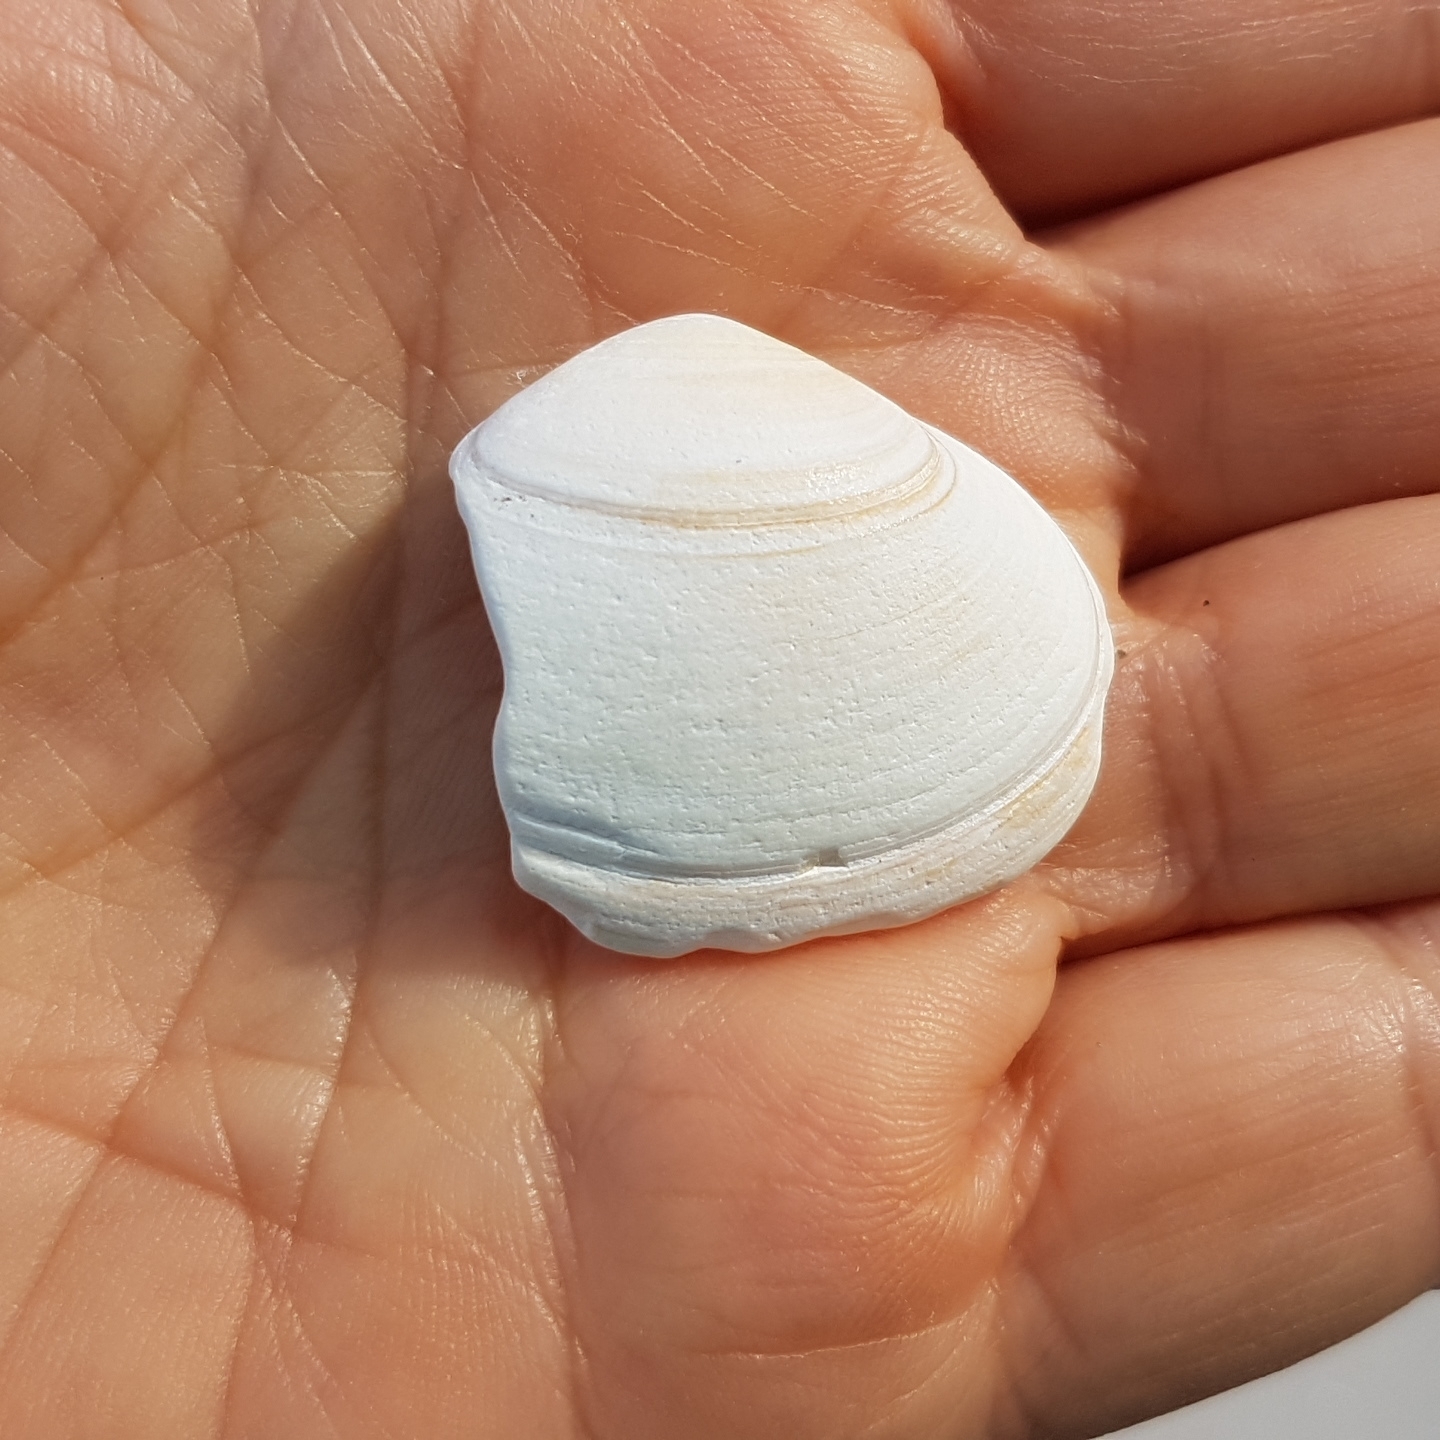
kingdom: Animalia
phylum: Mollusca
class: Bivalvia
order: Venerida
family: Mactridae
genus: Spisula
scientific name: Spisula solida
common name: Thick trough shell
